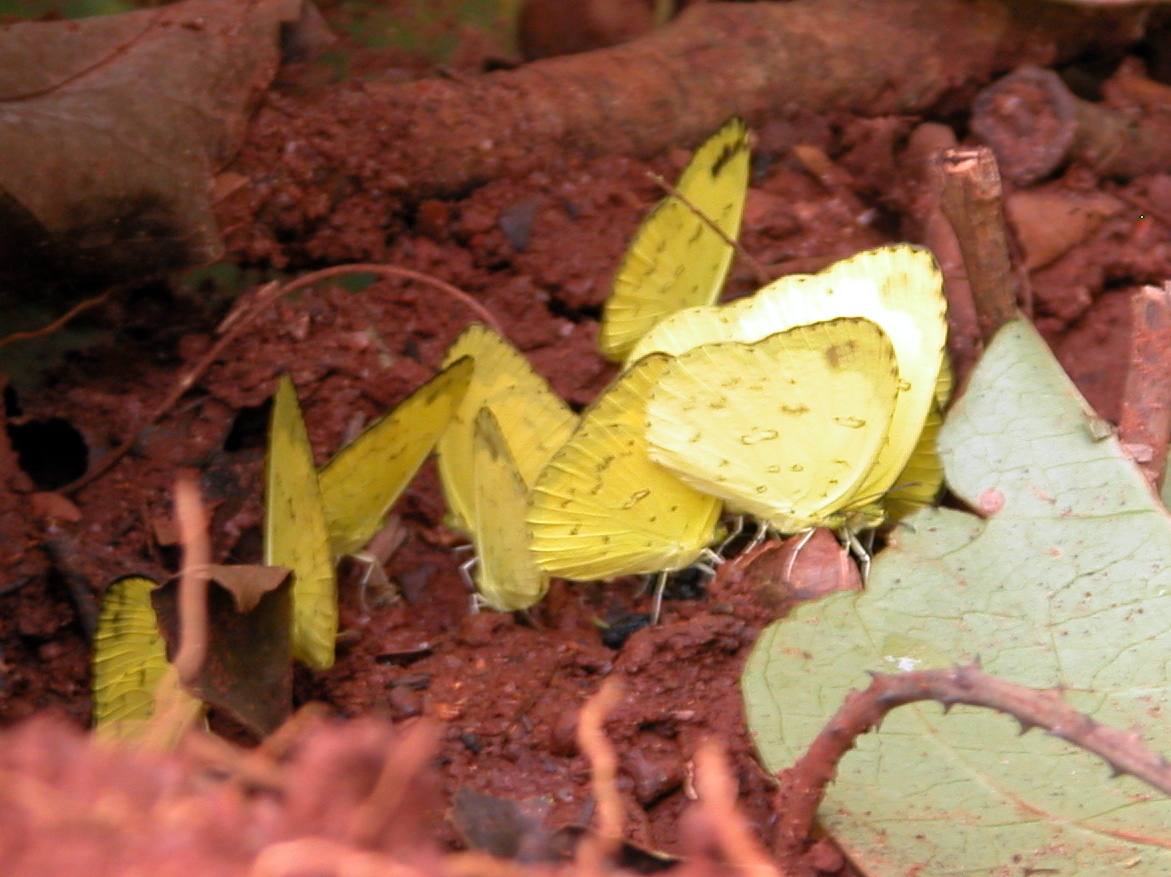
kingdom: Animalia
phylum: Arthropoda
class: Insecta
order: Lepidoptera
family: Pieridae
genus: Eurema
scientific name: Eurema blanda
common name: Three-spot grass yellow
